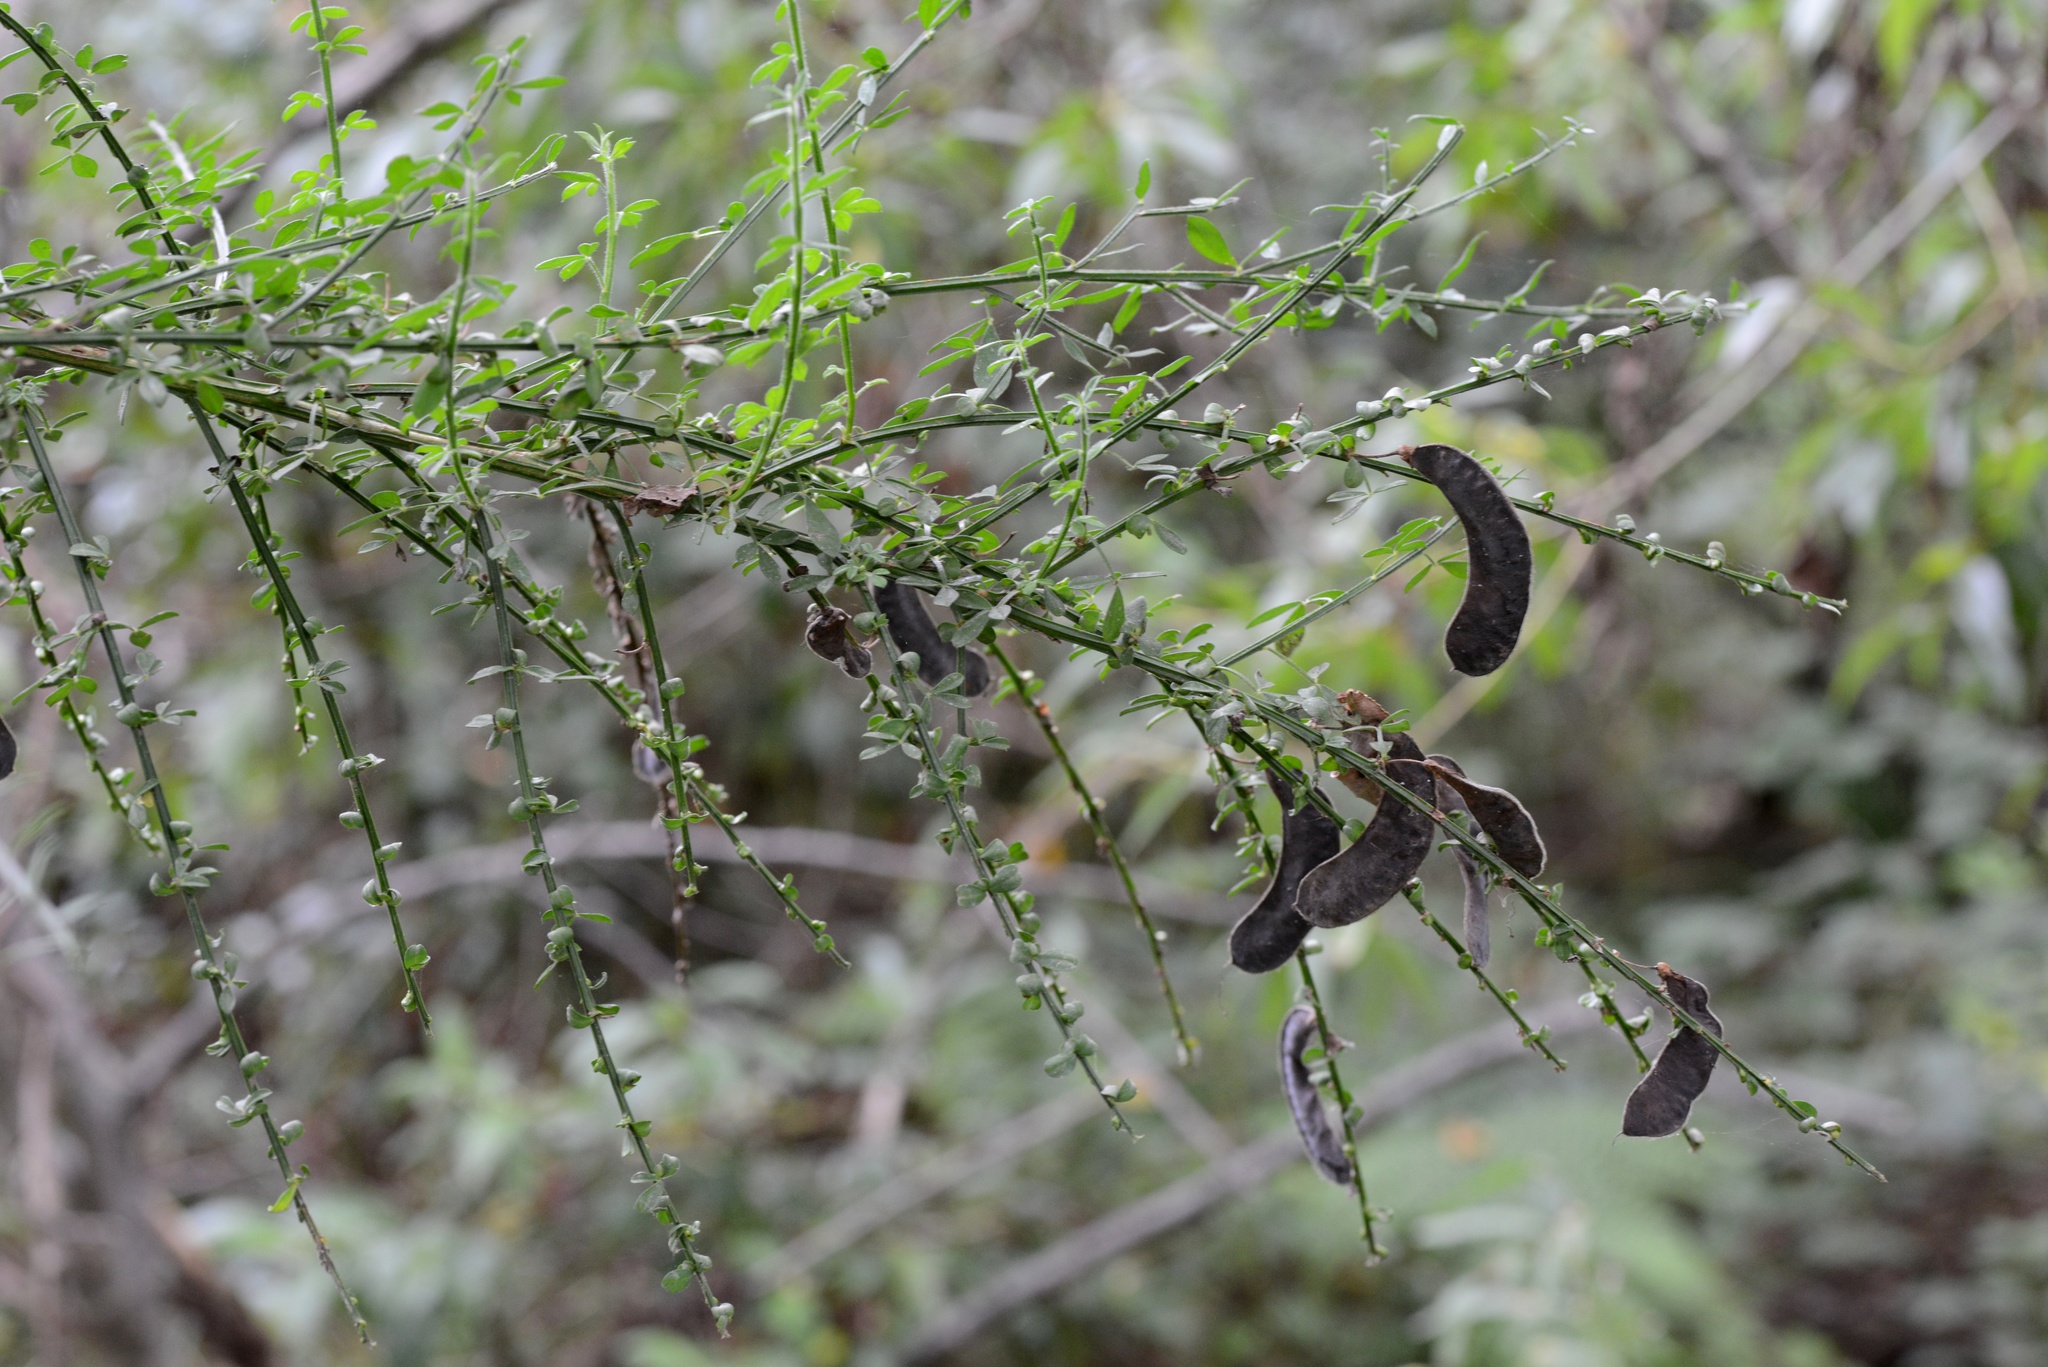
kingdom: Plantae
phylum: Tracheophyta
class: Magnoliopsida
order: Fabales
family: Fabaceae
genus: Cytisus
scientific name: Cytisus scoparius
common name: Scotch broom
